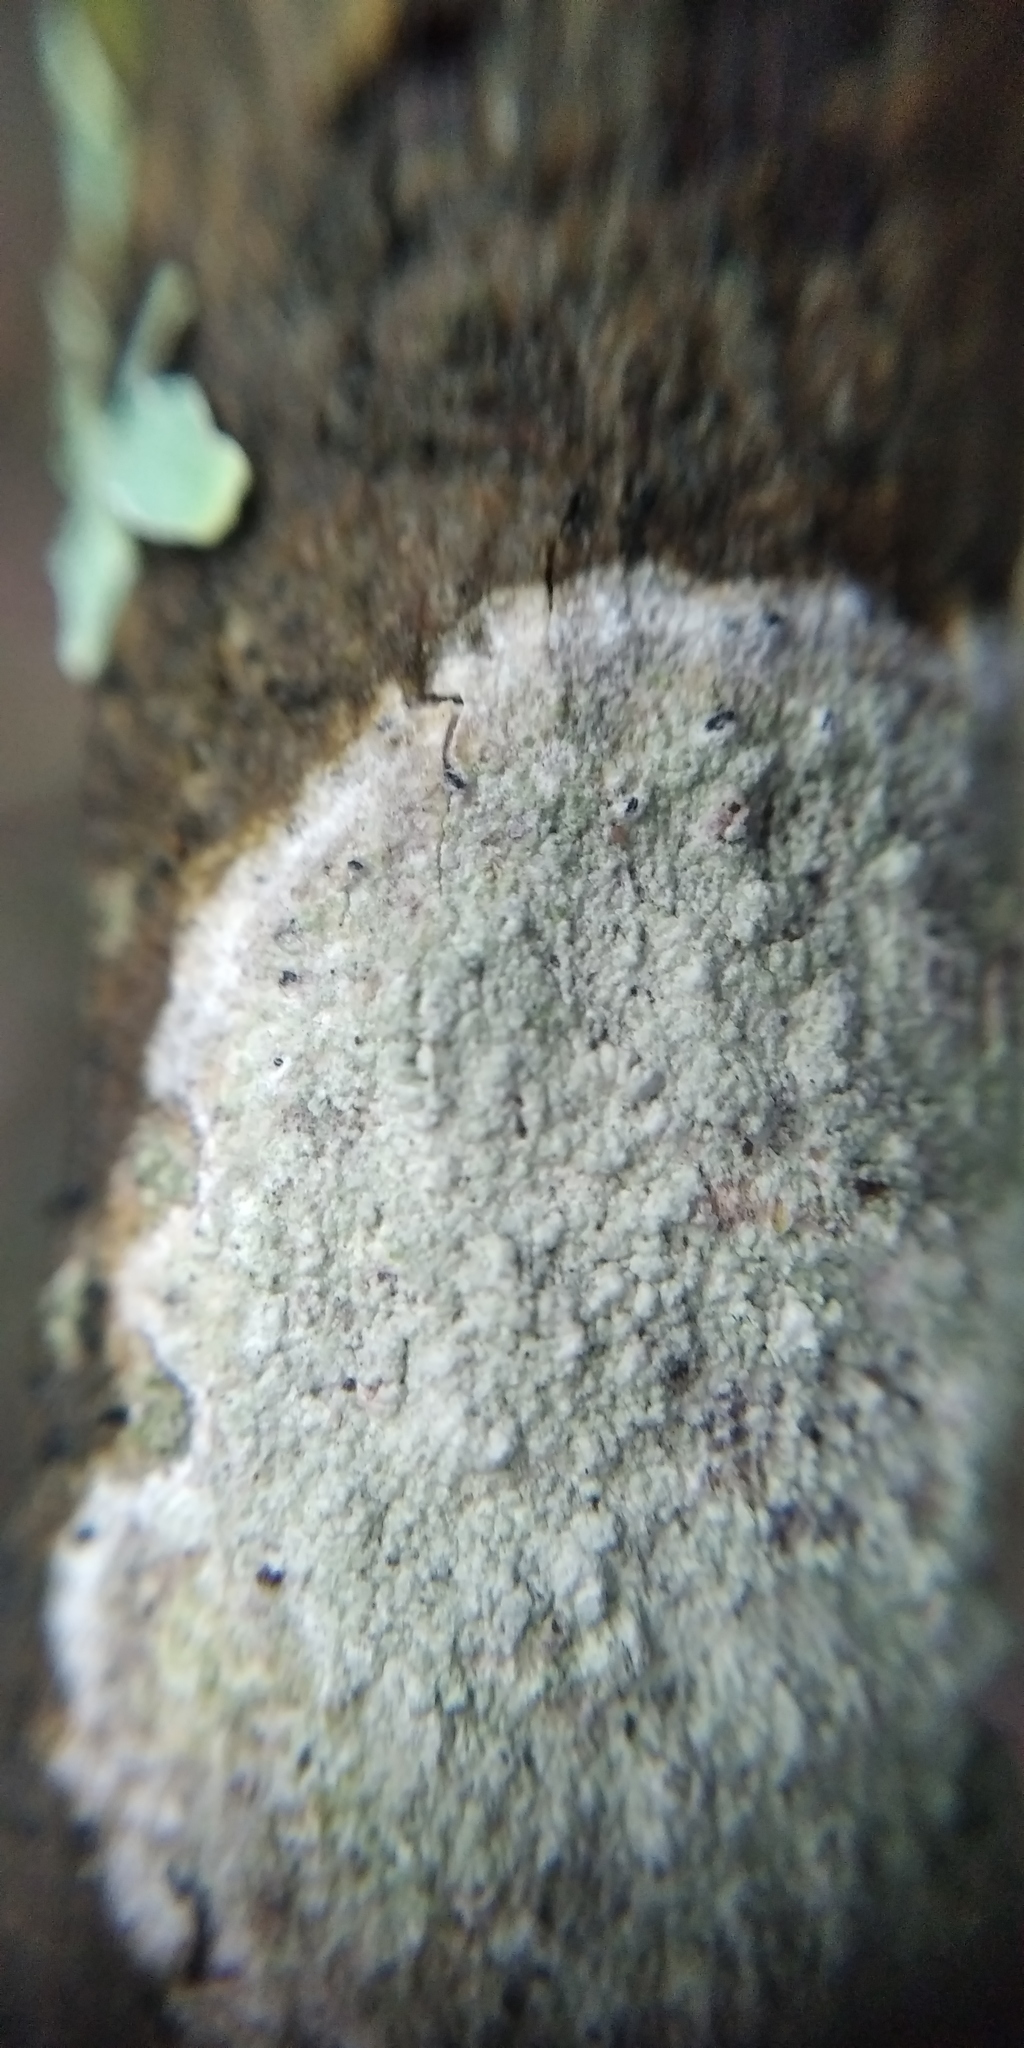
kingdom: Fungi
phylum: Ascomycota
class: Lecanoromycetes
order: Ostropales
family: Phlyctidaceae
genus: Phlyctis
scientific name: Phlyctis argena
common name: Whitewash lichen
